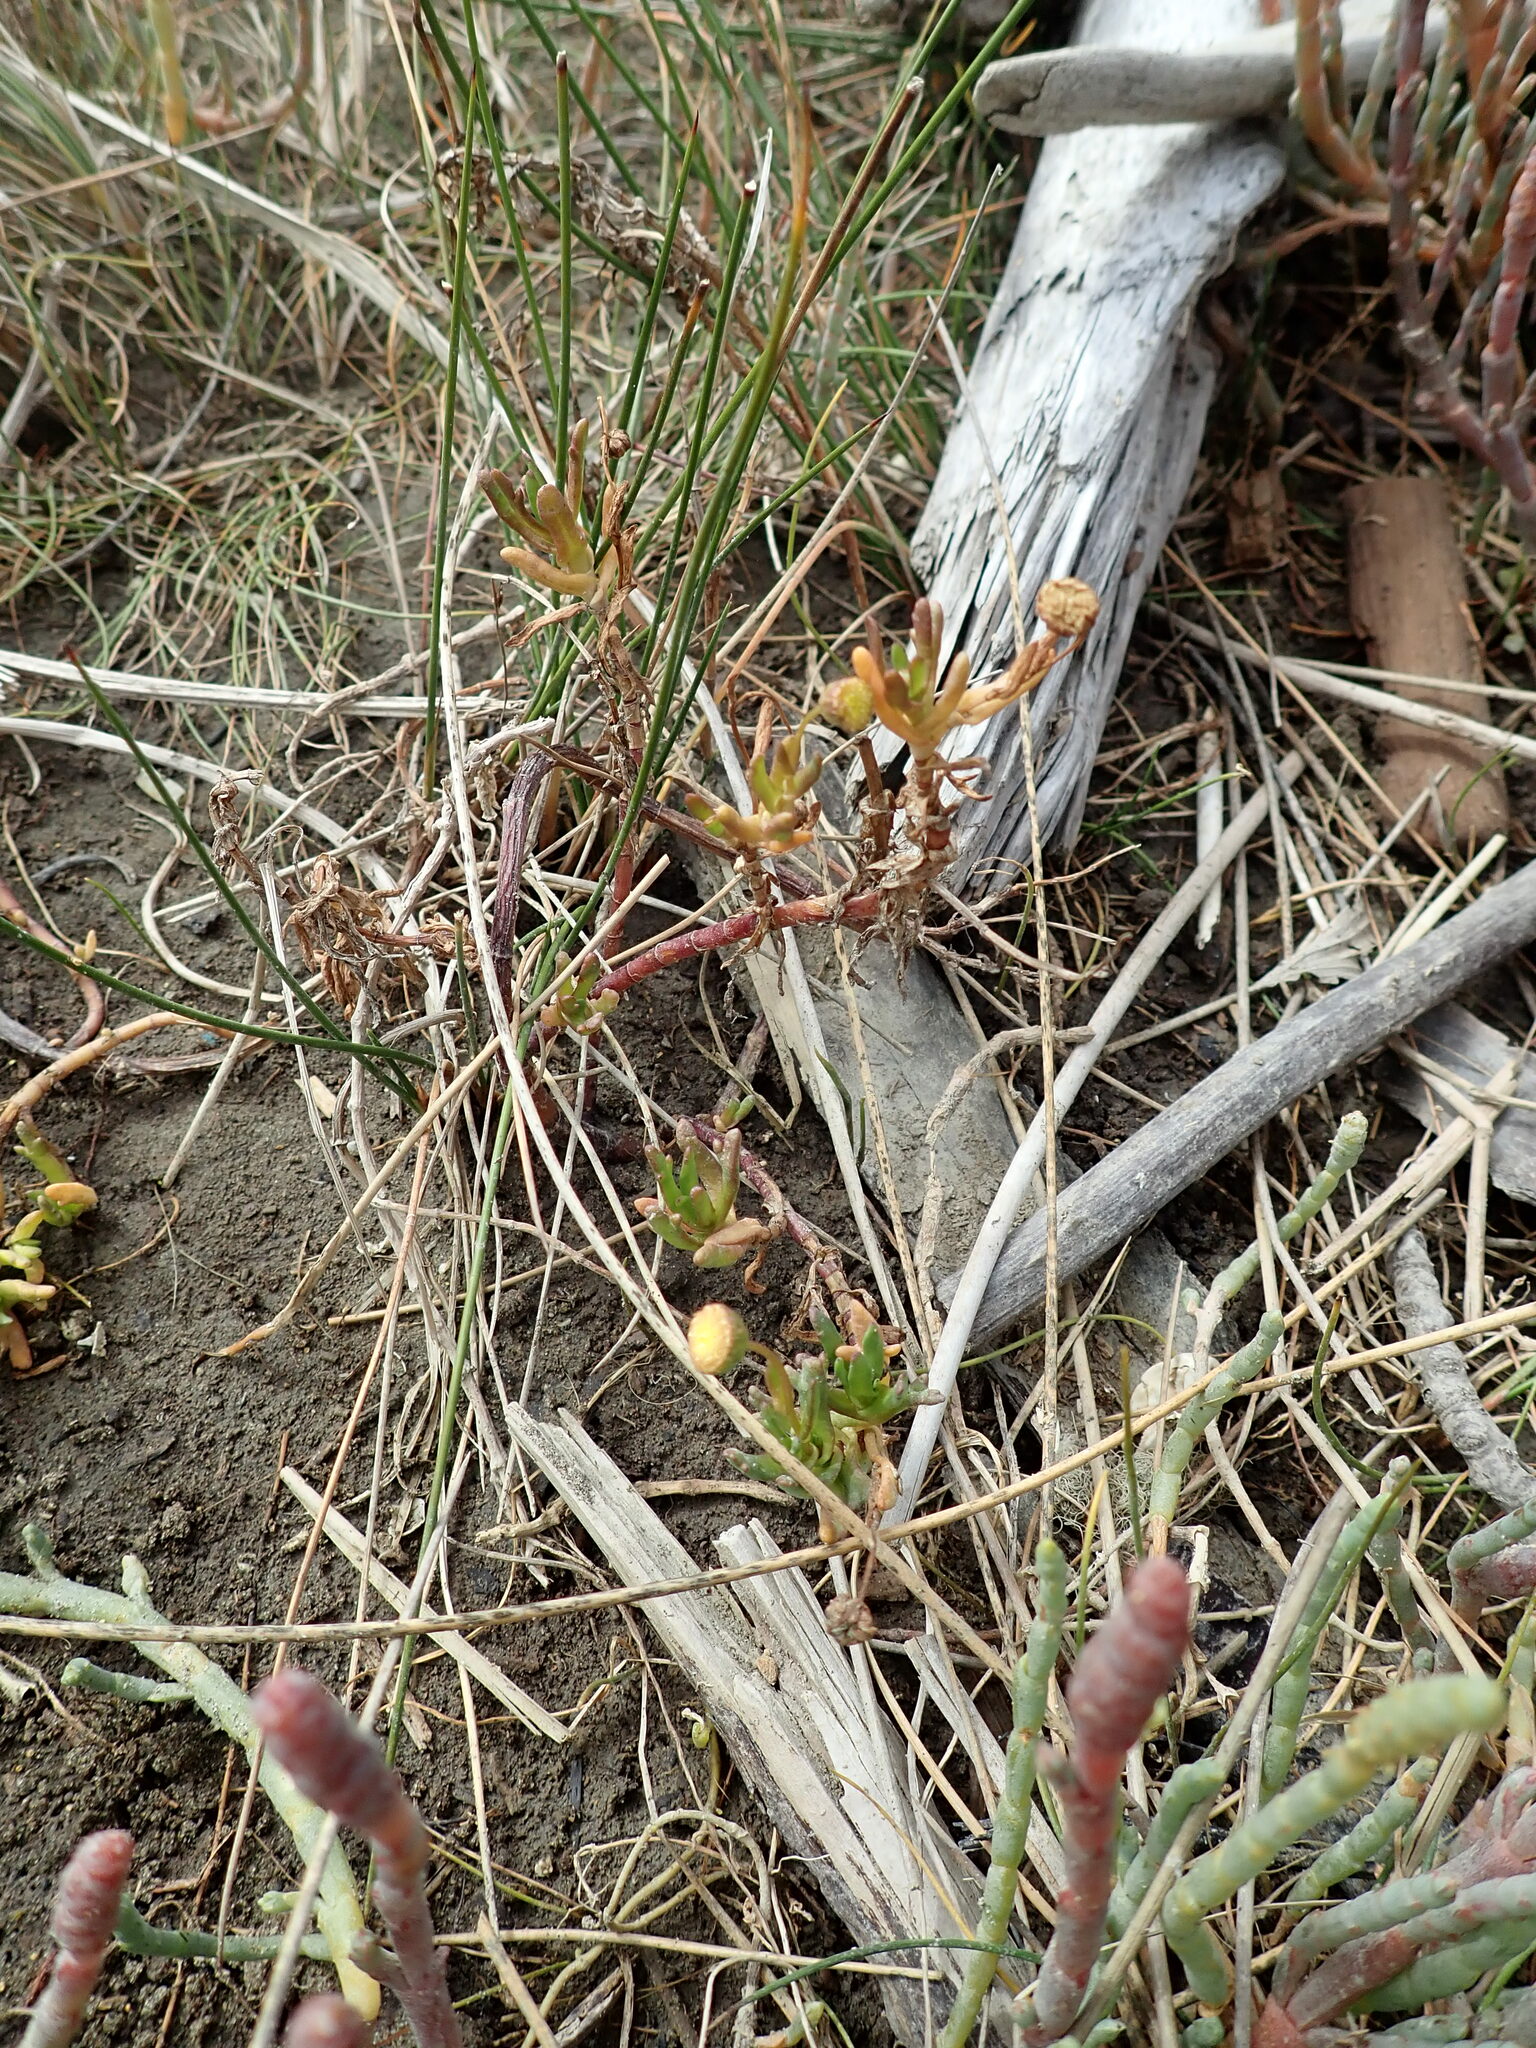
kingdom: Plantae
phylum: Tracheophyta
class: Magnoliopsida
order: Asterales
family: Asteraceae
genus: Cotula
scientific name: Cotula coronopifolia
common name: Buttonweed
